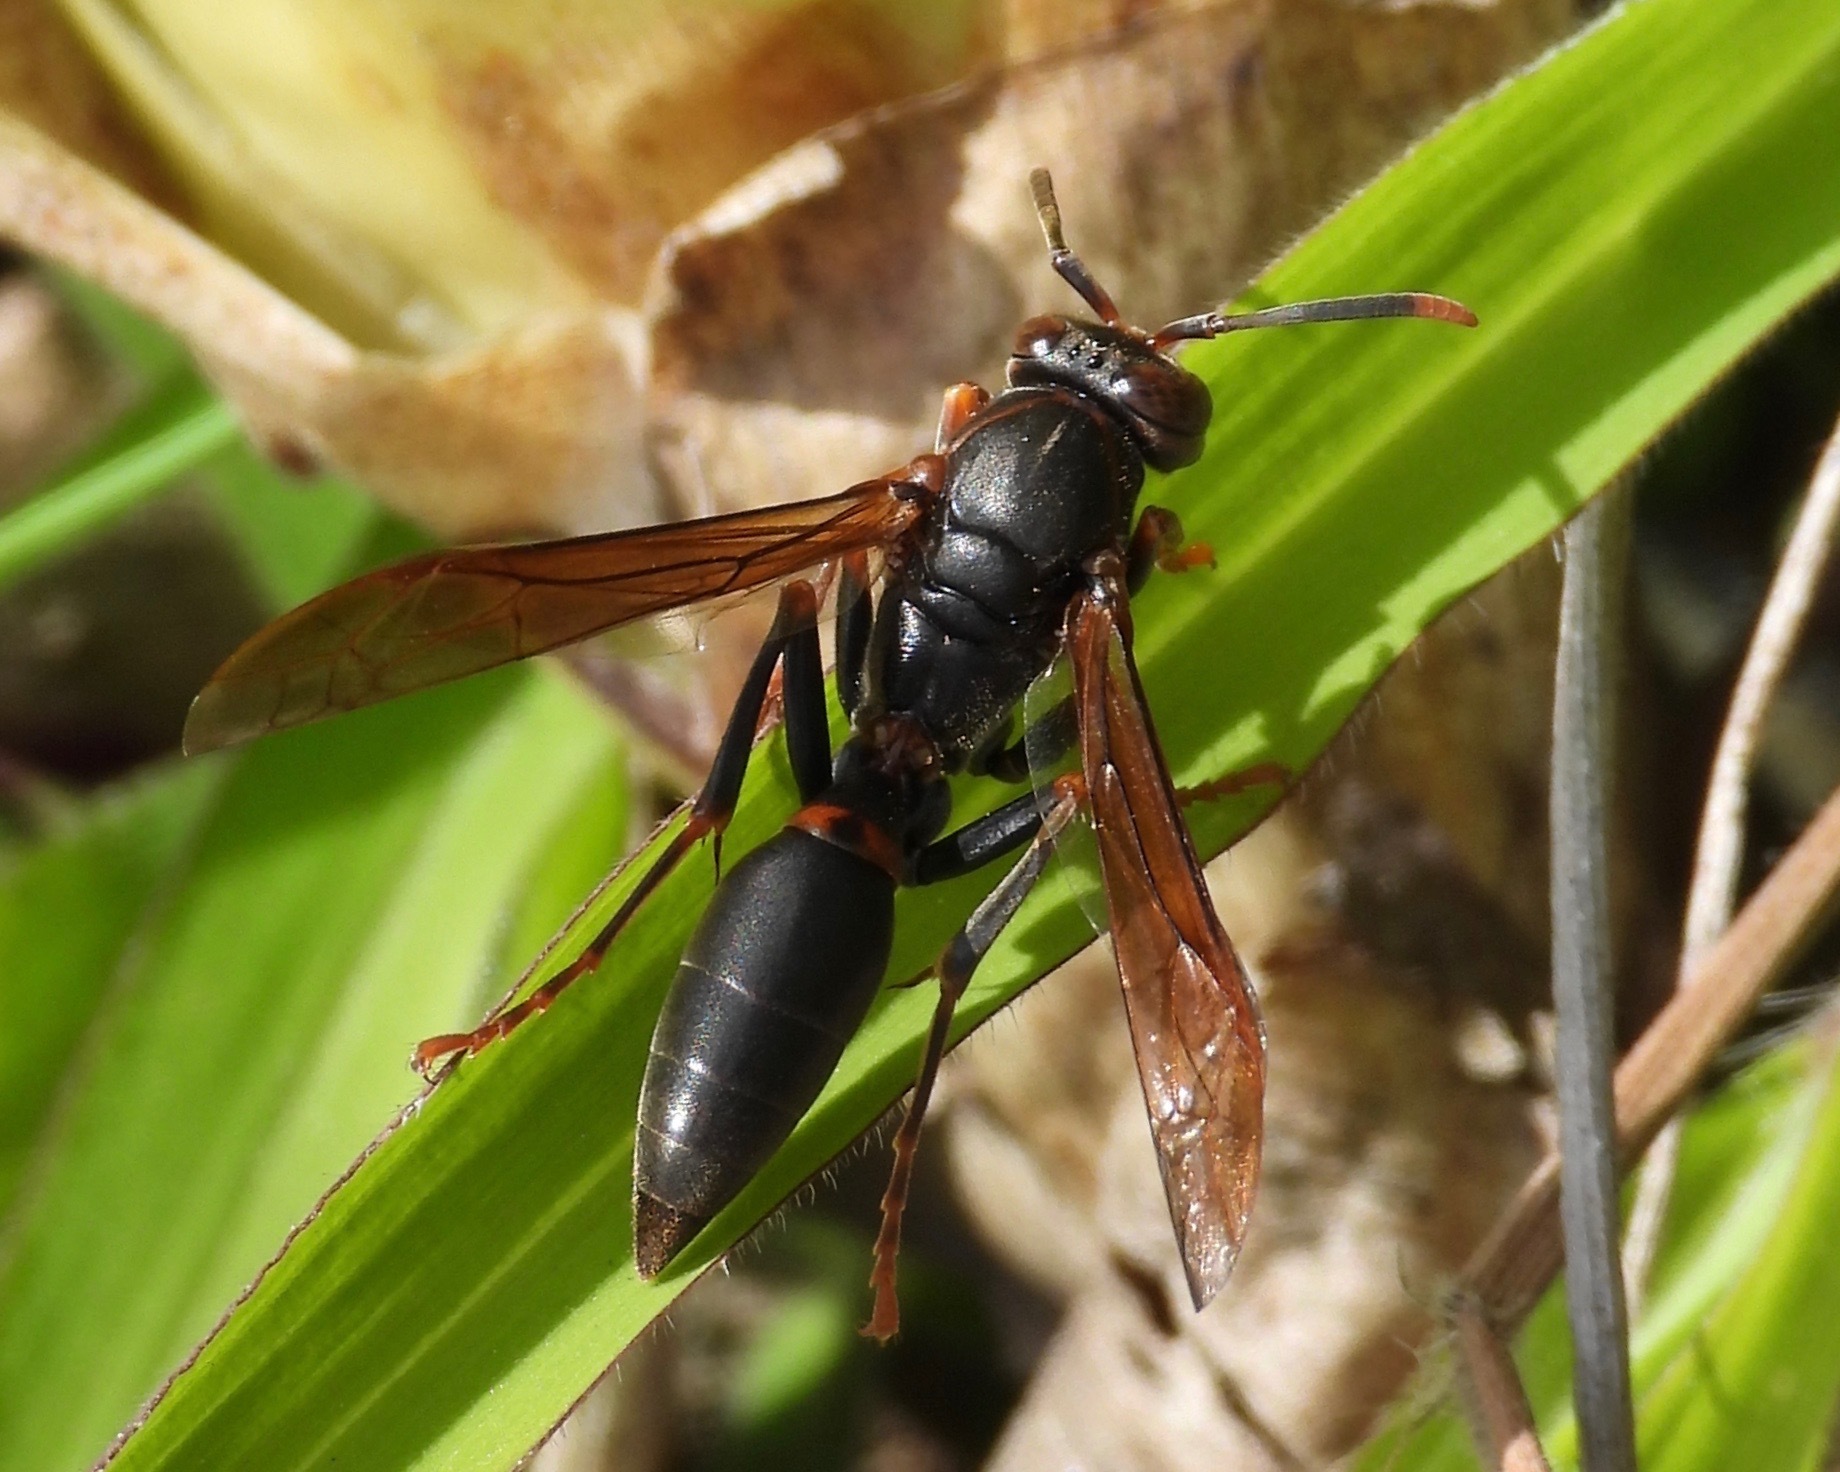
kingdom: Animalia
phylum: Arthropoda
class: Insecta
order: Hymenoptera
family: Eumenidae
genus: Polistes
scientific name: Polistes apicalis
